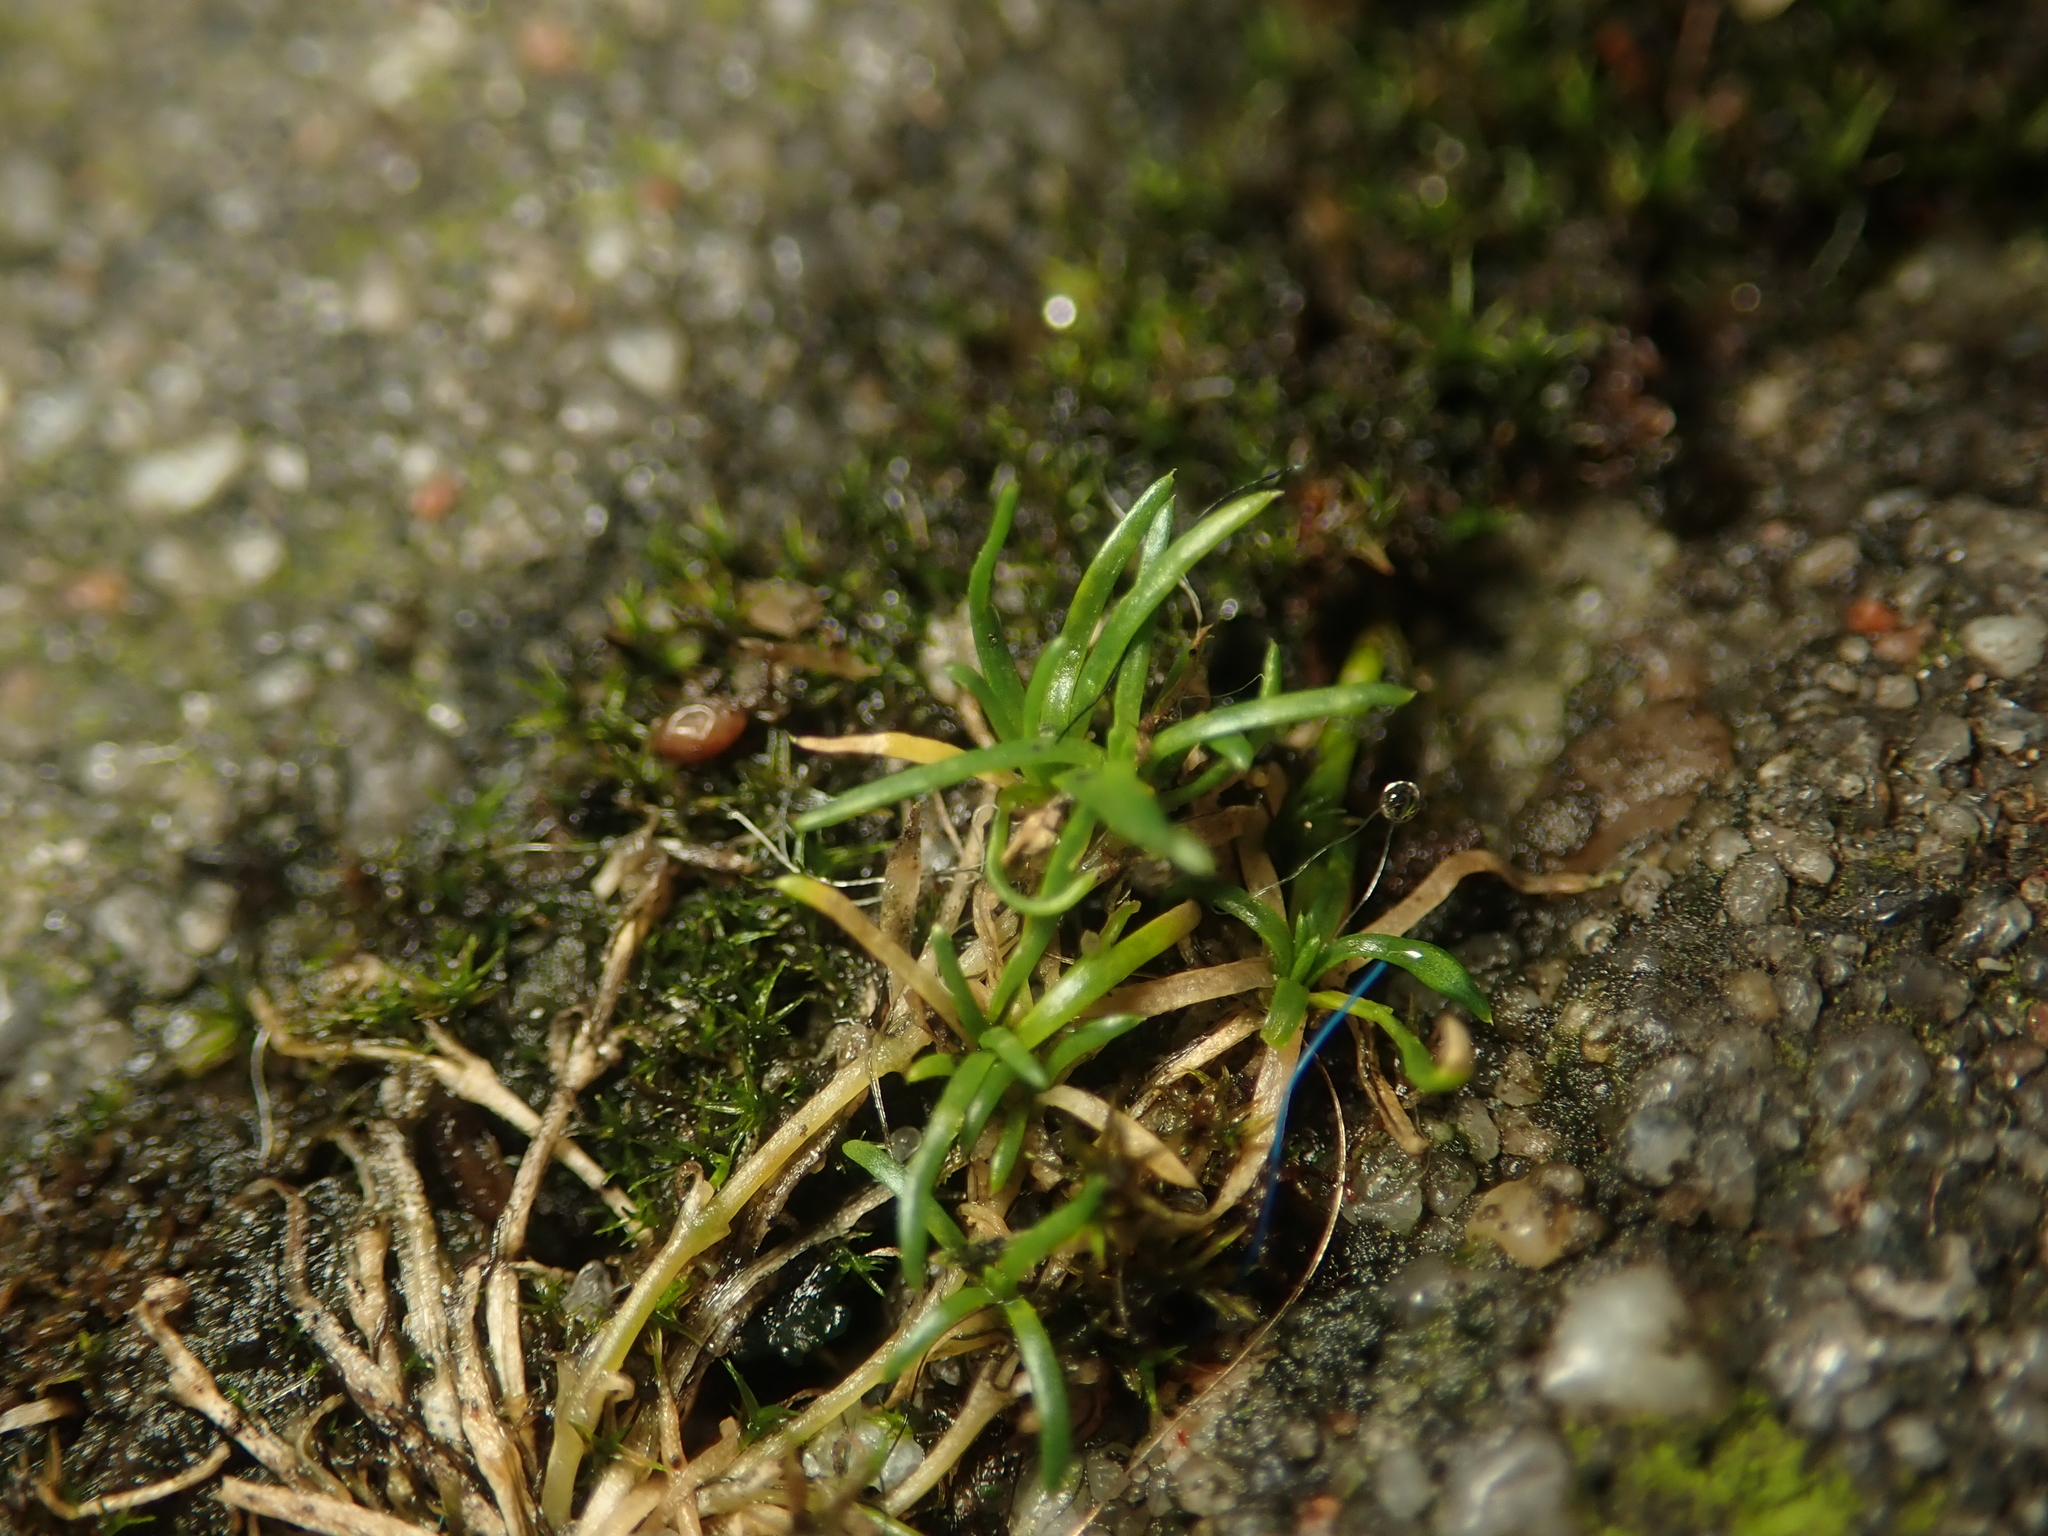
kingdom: Plantae
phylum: Tracheophyta
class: Magnoliopsida
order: Caryophyllales
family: Caryophyllaceae
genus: Sagina
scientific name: Sagina procumbens
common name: Procumbent pearlwort
